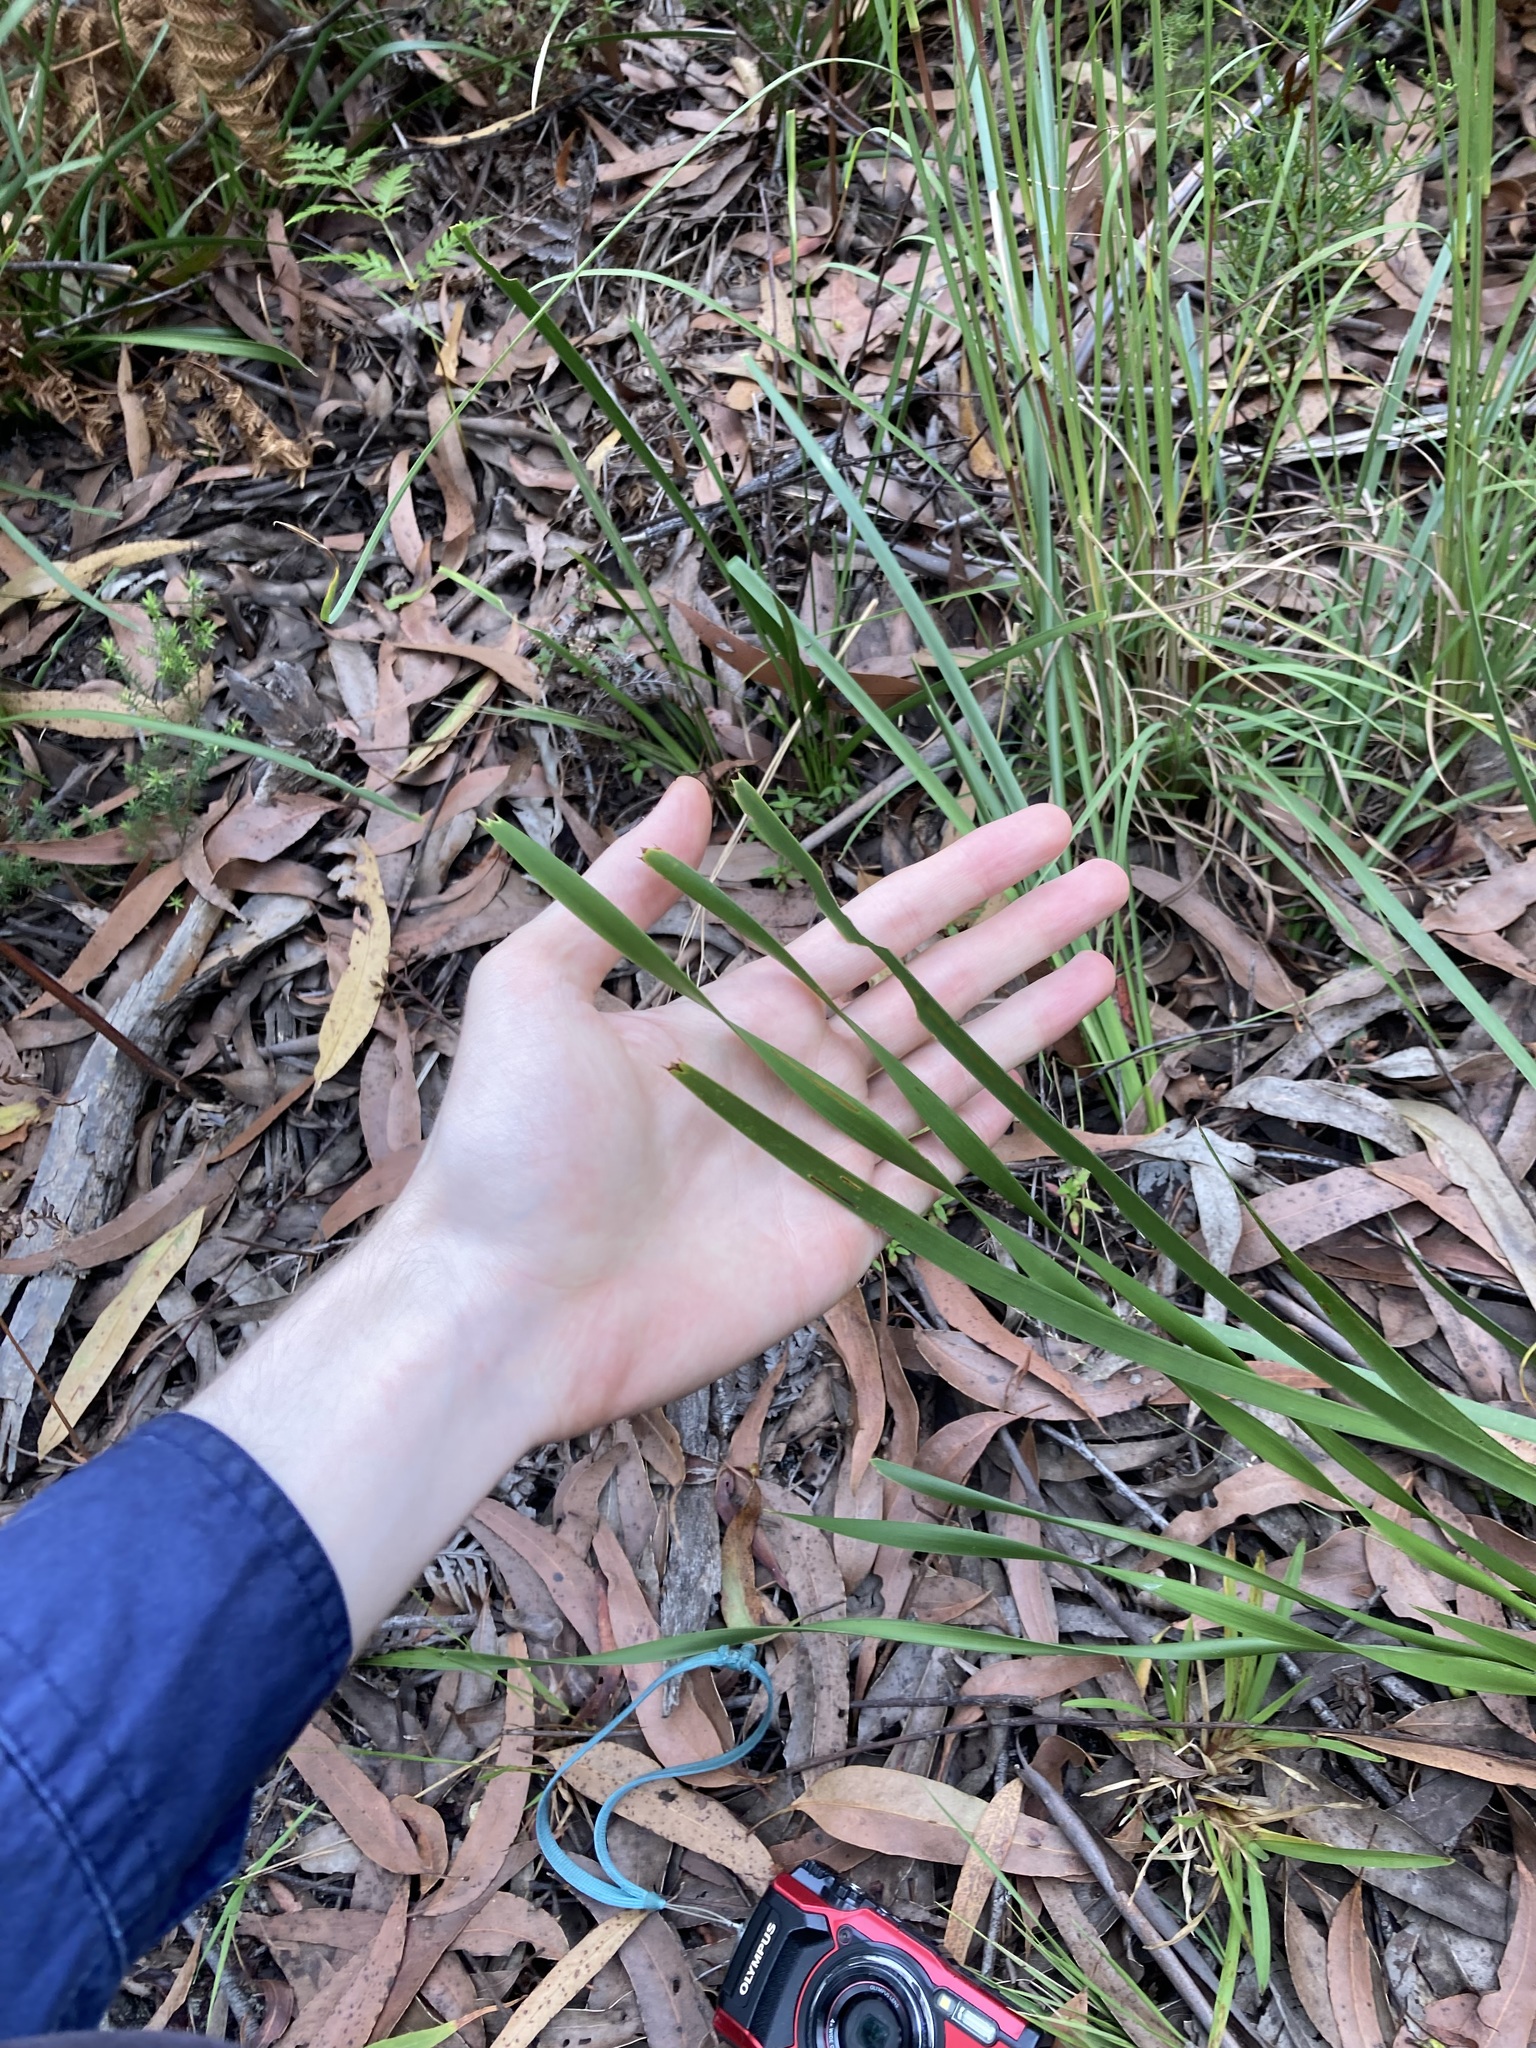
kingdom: Plantae
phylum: Tracheophyta
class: Liliopsida
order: Asparagales
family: Asparagaceae
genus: Lomandra
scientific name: Lomandra longifolia
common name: Longleaf mat-rush
